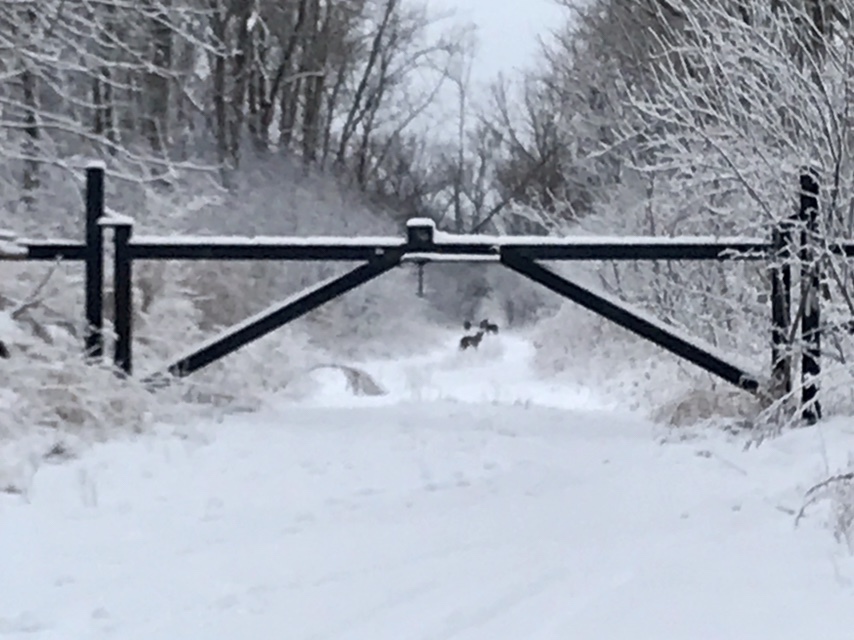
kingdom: Animalia
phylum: Chordata
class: Mammalia
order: Carnivora
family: Canidae
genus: Canis
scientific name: Canis latrans
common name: Coyote
